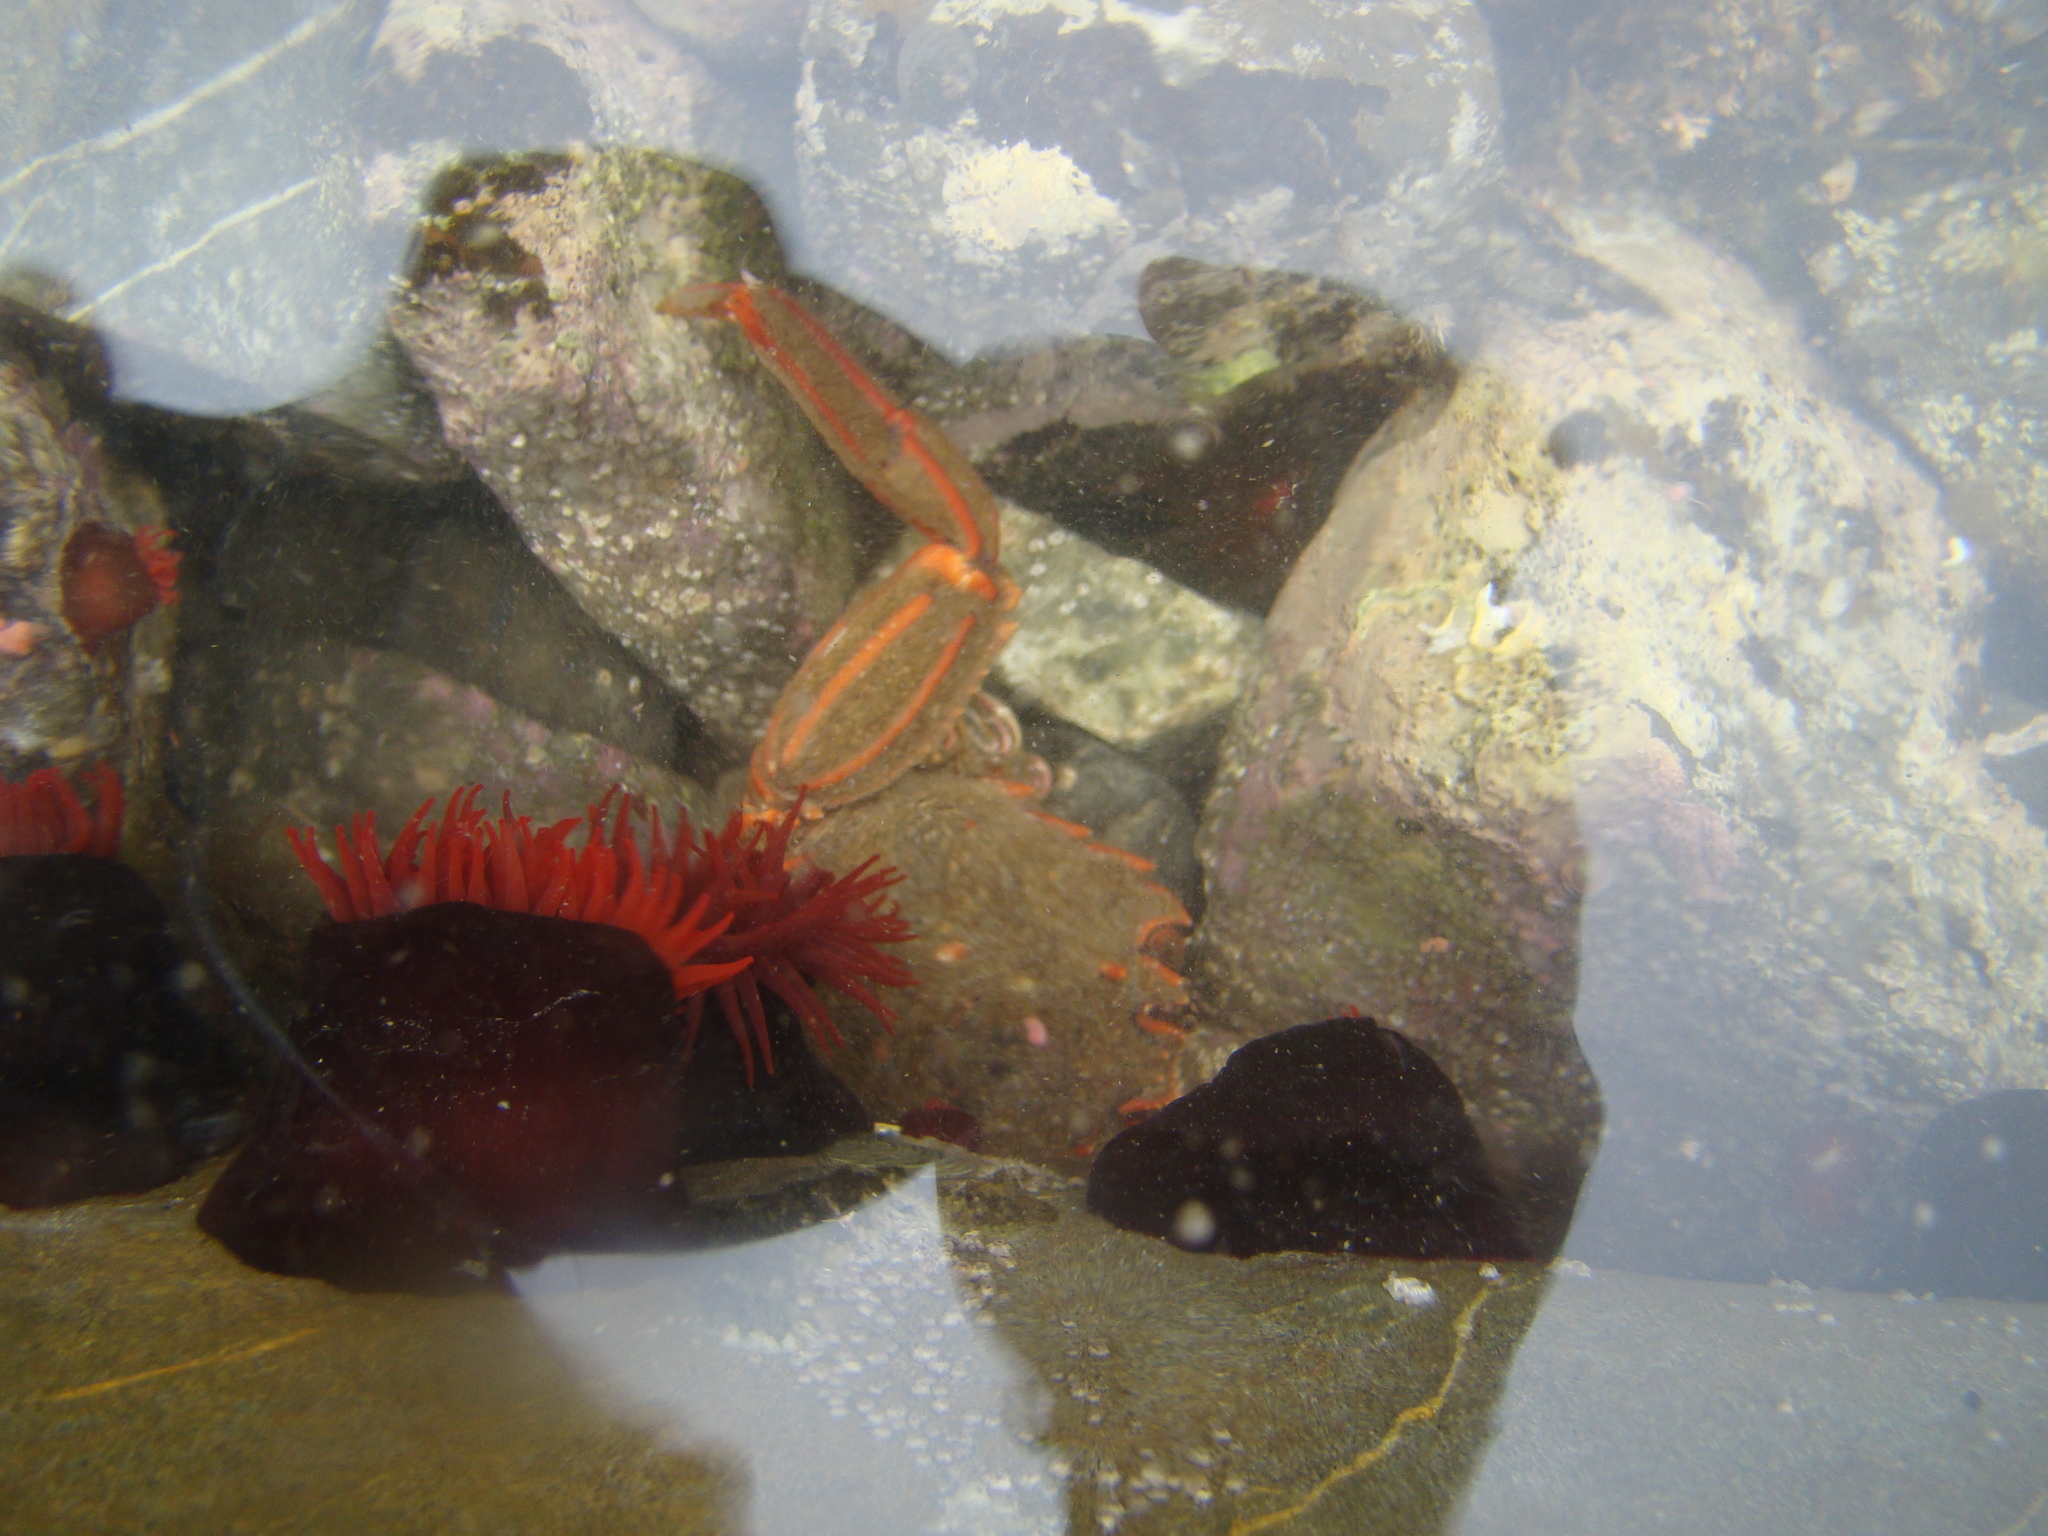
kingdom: Animalia
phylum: Arthropoda
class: Malacostraca
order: Decapoda
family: Plagusiidae
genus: Guinusia
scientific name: Guinusia chabrus
